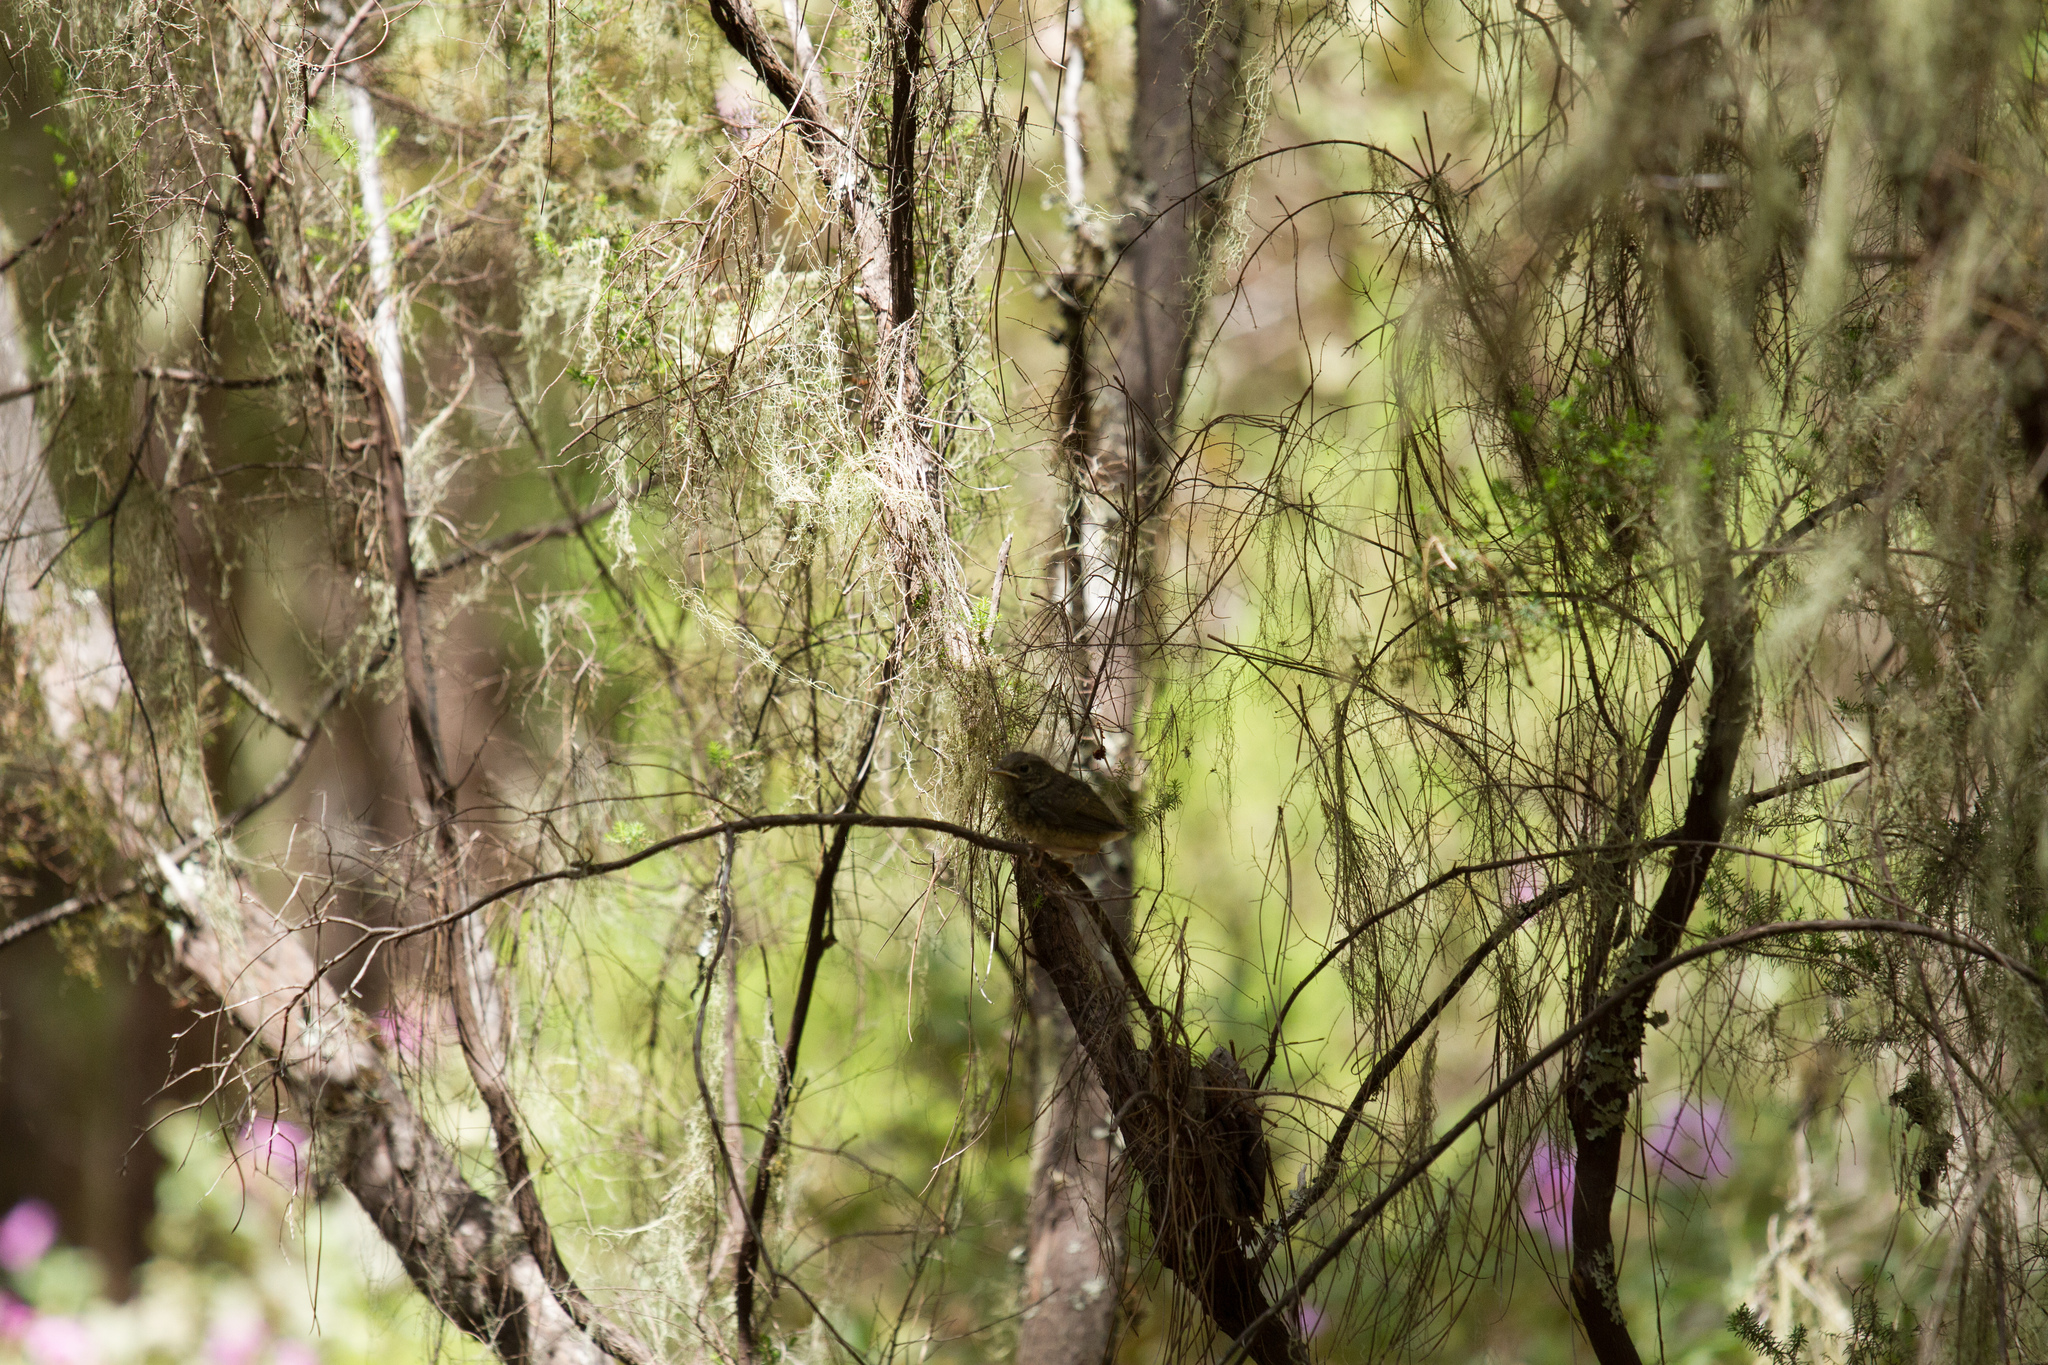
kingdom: Animalia
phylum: Chordata
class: Aves
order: Passeriformes
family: Muscicapidae
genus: Erithacus
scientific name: Erithacus rubecula
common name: European robin
